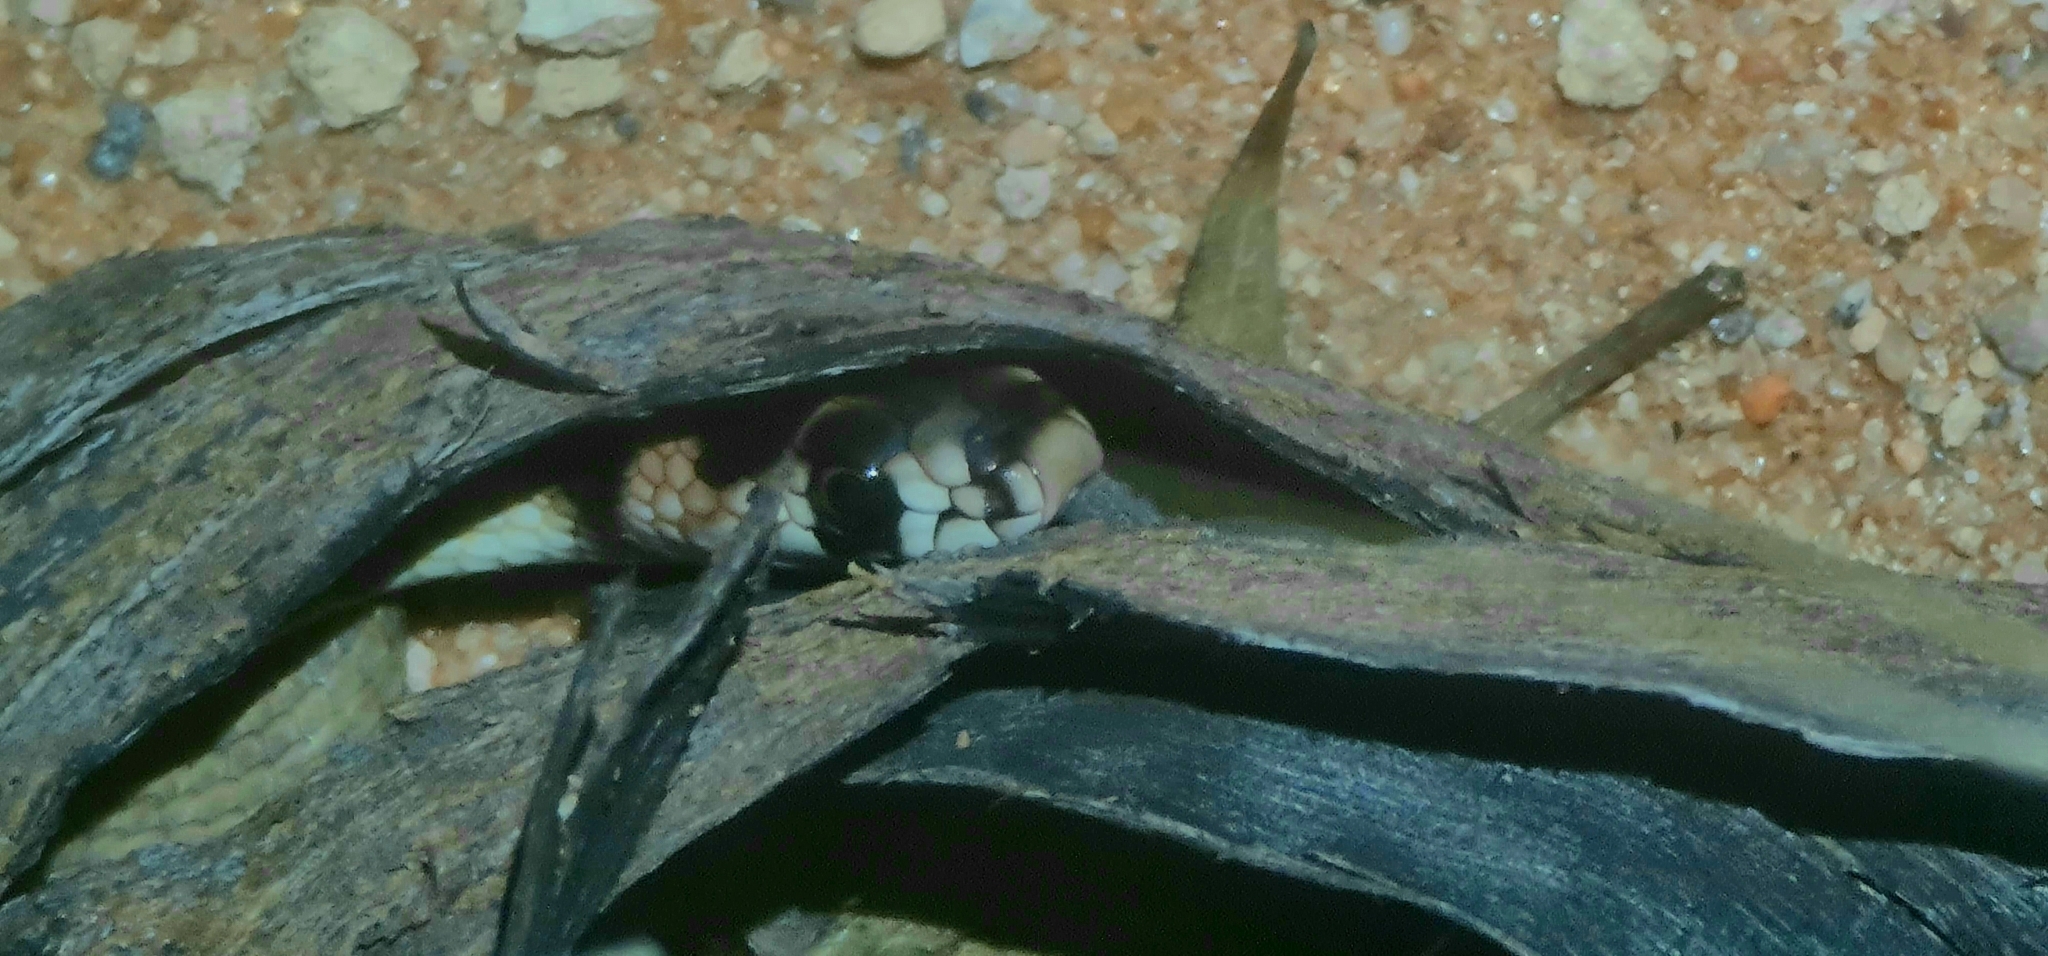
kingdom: Animalia
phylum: Chordata
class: Squamata
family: Elapidae
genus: Pseudonaja
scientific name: Pseudonaja aspidorhyncha
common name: Strap-snouted brown snake
